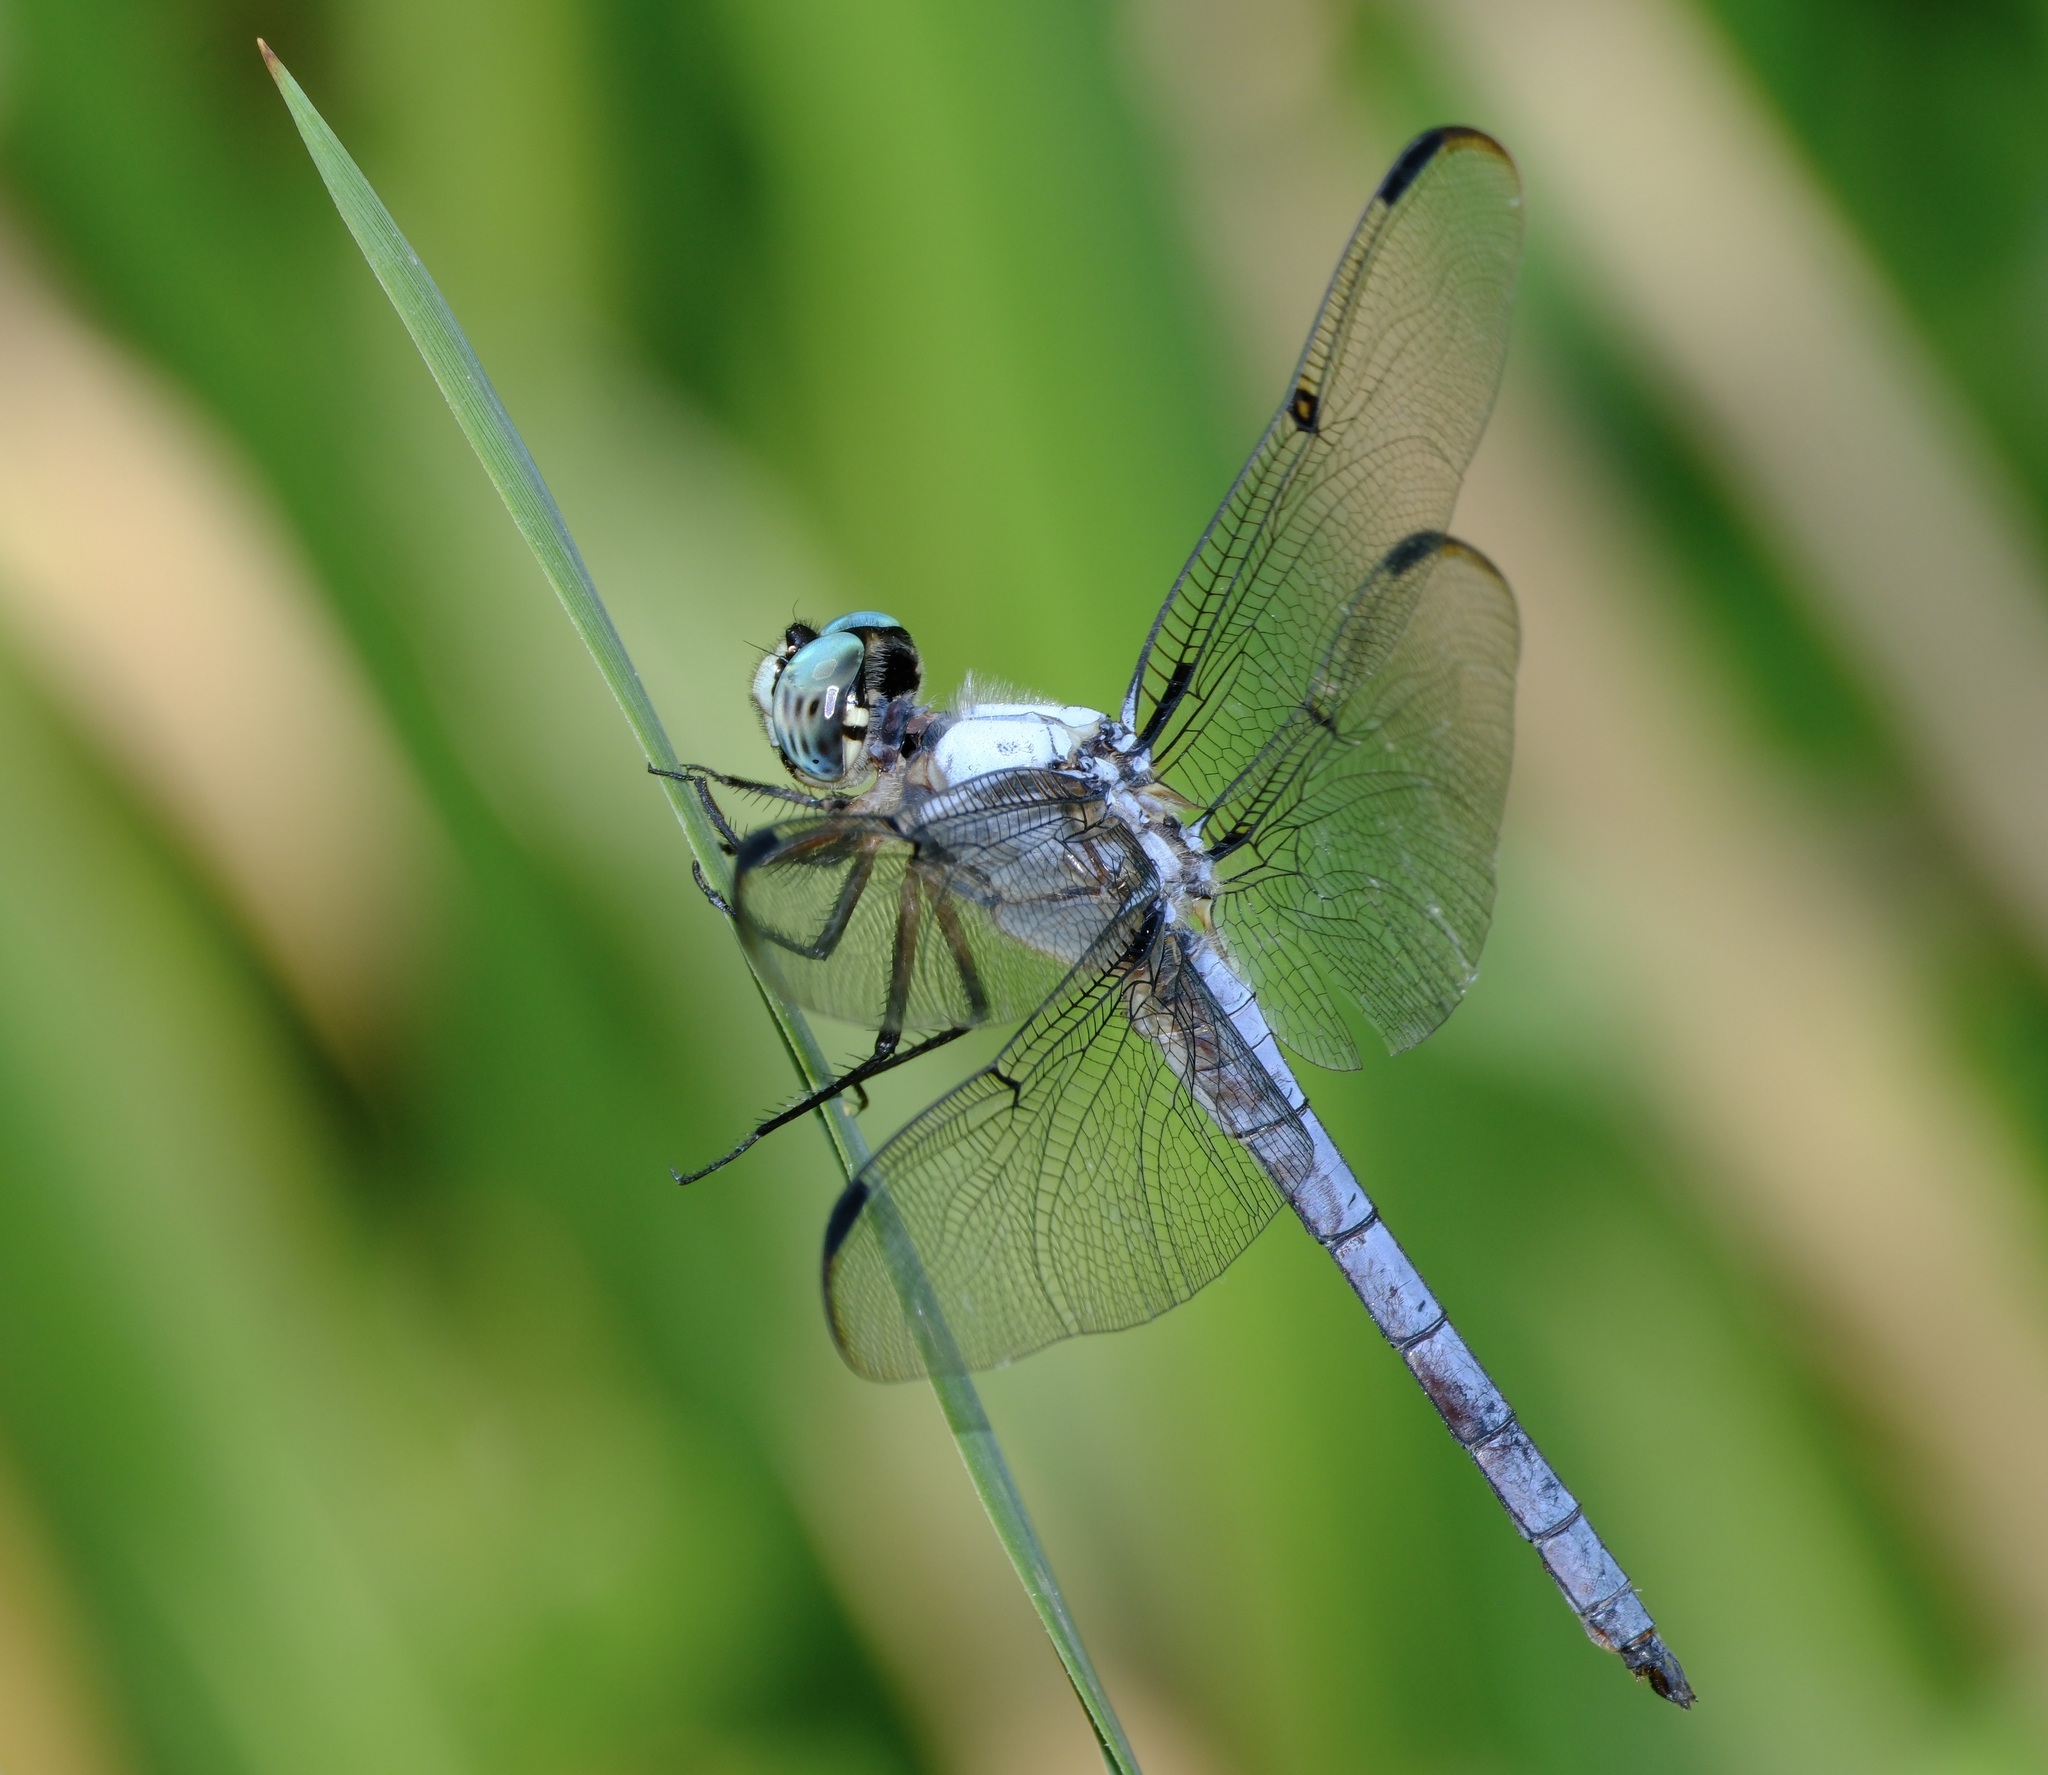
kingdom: Animalia
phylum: Arthropoda
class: Insecta
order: Odonata
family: Libellulidae
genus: Libellula
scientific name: Libellula vibrans
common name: Great blue skimmer
